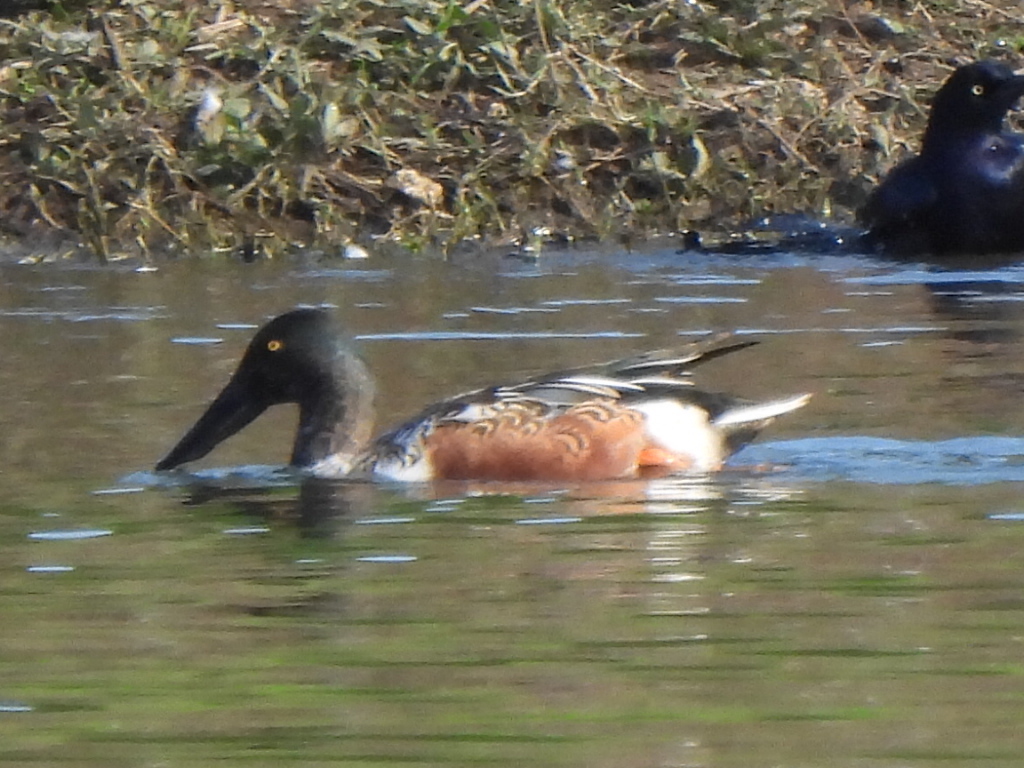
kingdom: Animalia
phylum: Chordata
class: Aves
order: Anseriformes
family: Anatidae
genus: Spatula
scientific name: Spatula clypeata
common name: Northern shoveler
